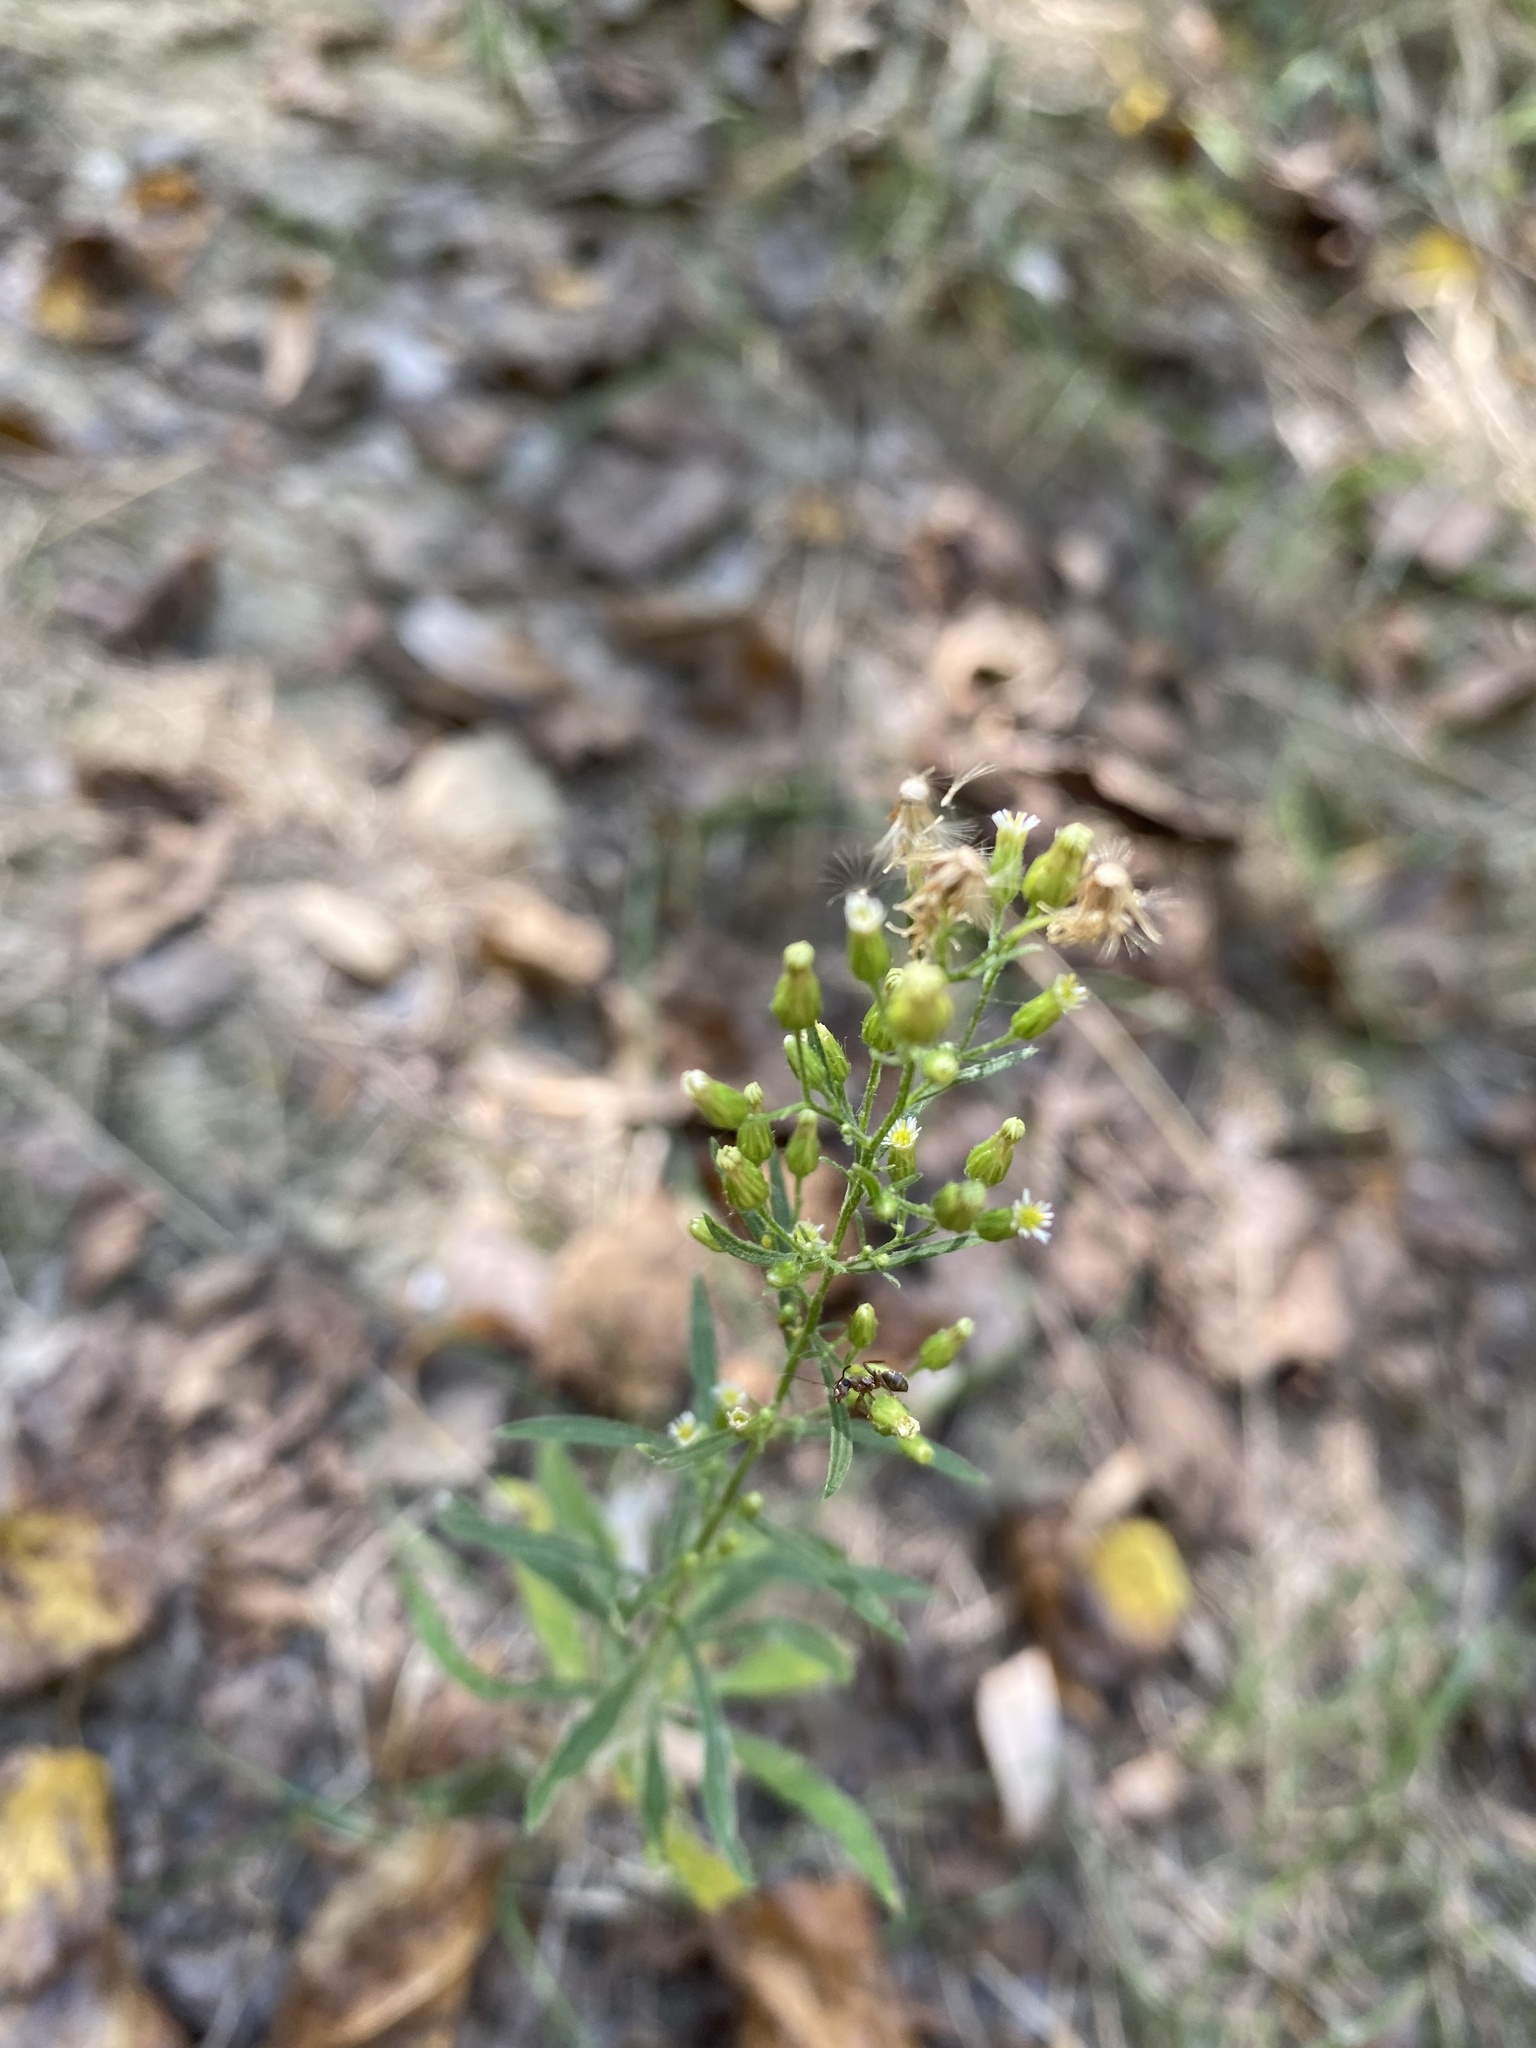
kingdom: Plantae
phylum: Tracheophyta
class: Magnoliopsida
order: Asterales
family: Asteraceae
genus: Erigeron
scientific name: Erigeron canadensis
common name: Canadian fleabane
